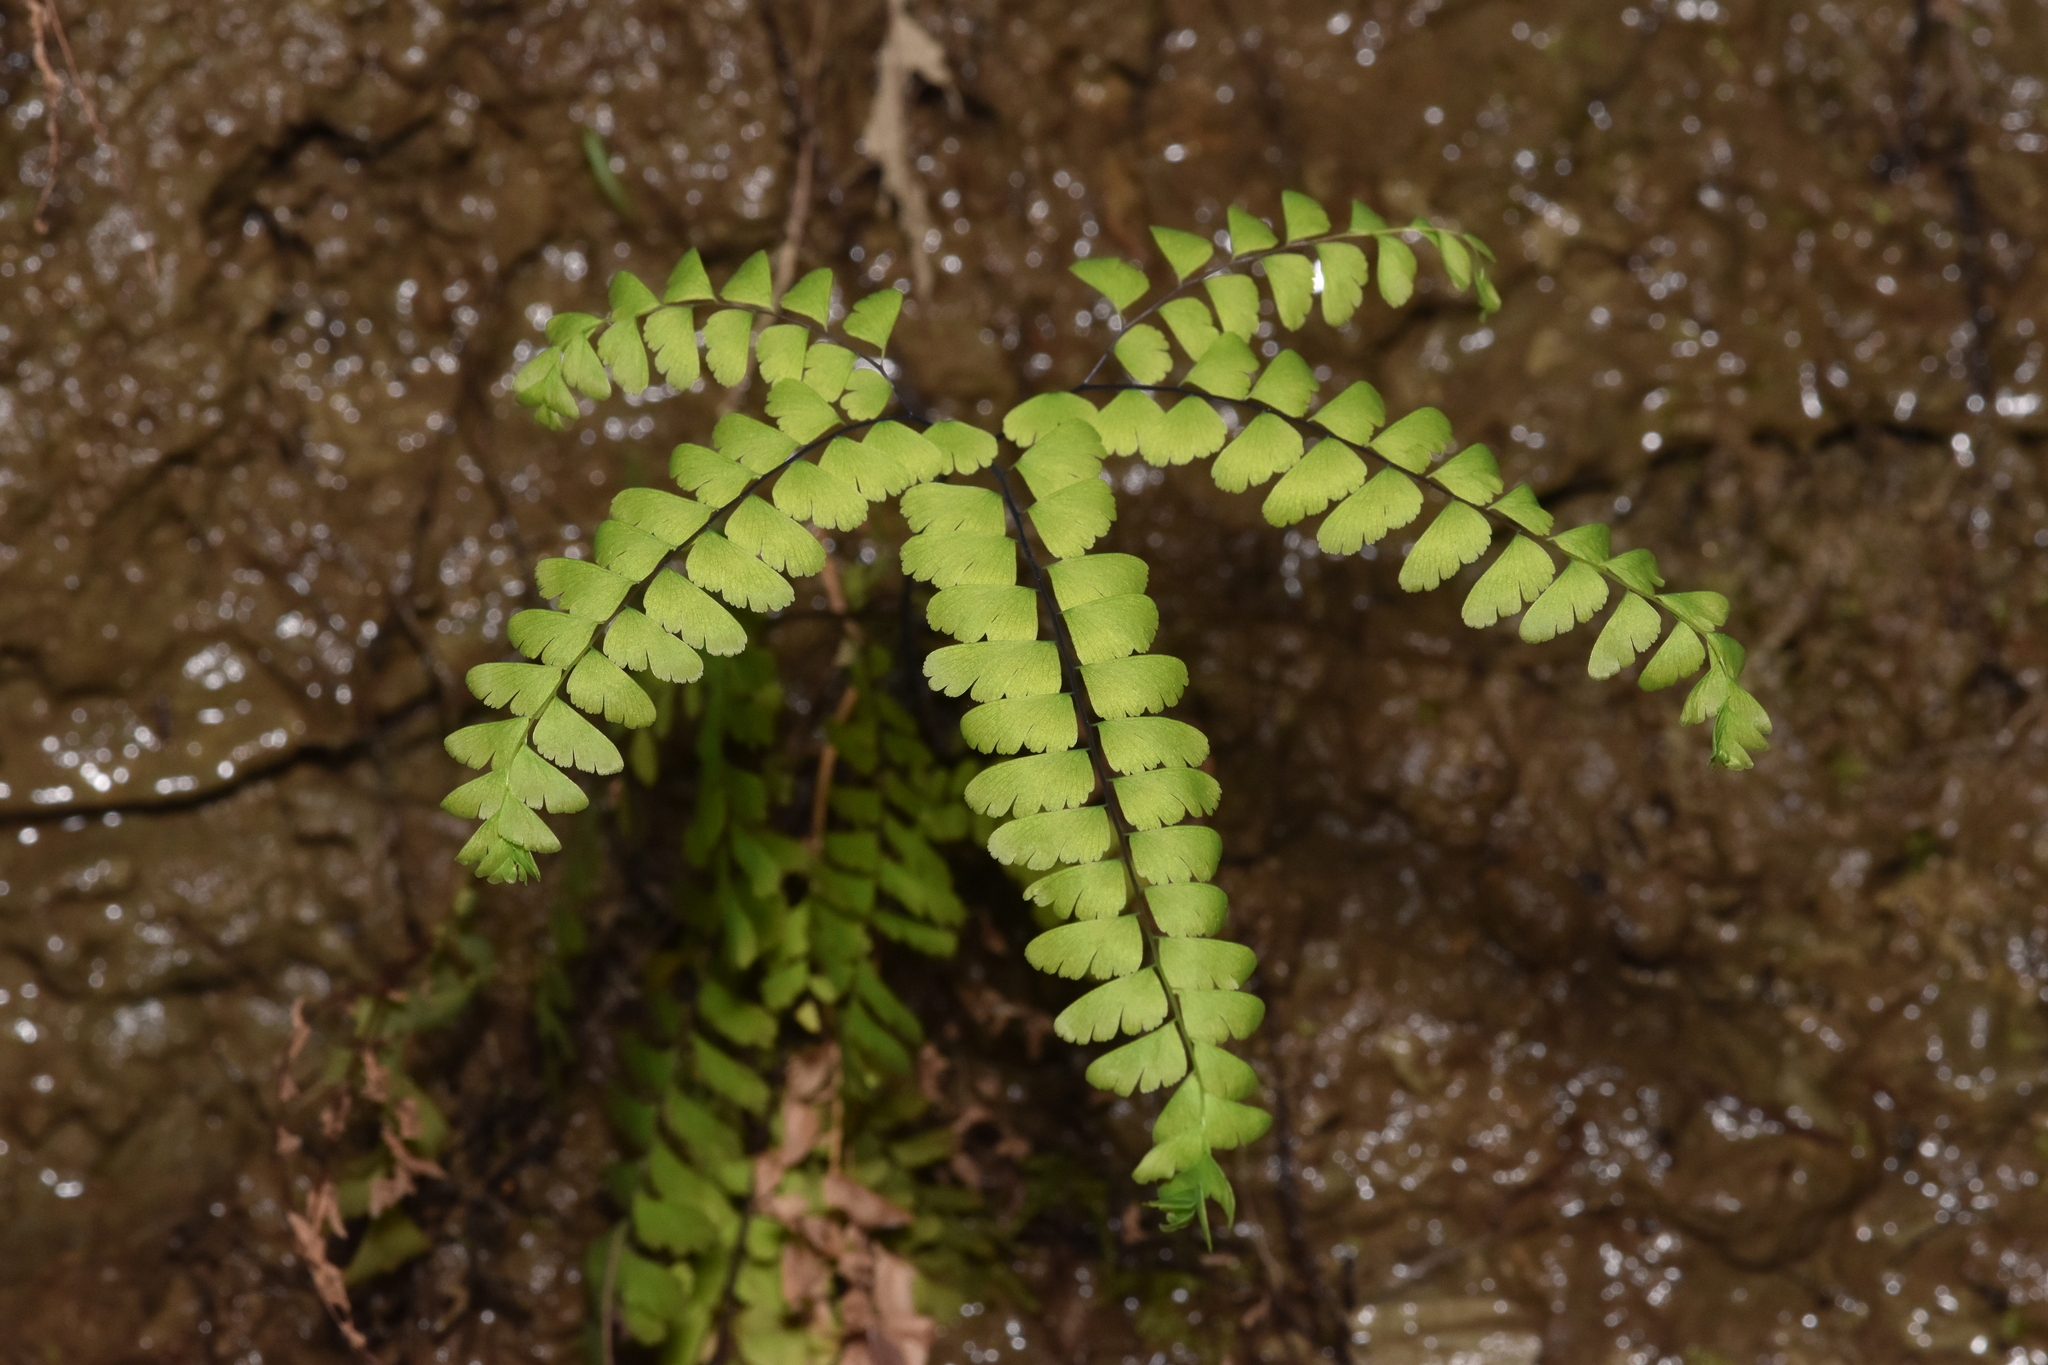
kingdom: Plantae
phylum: Tracheophyta
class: Polypodiopsida
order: Polypodiales
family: Pteridaceae
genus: Adiantum
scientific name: Adiantum aleuticum
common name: Aleutian maidenhair fern
